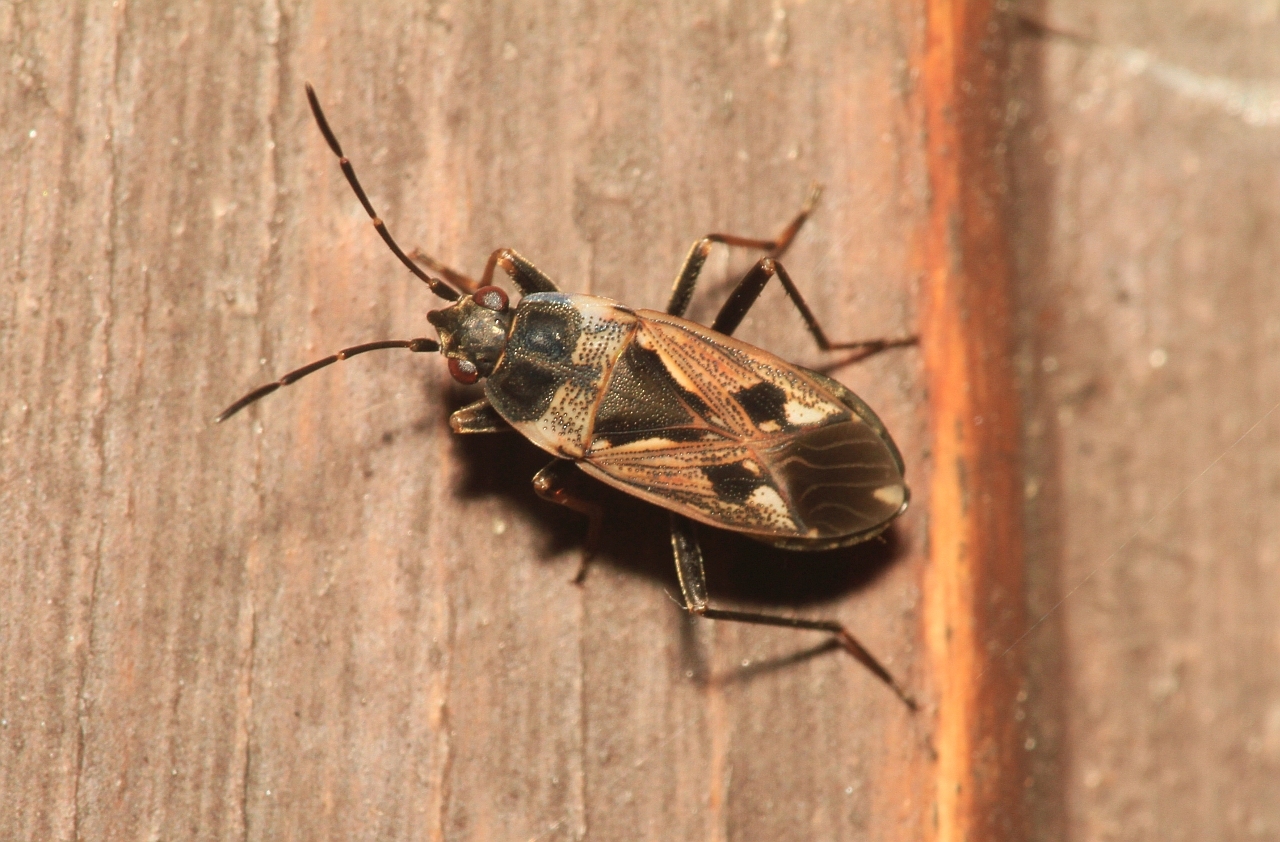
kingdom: Animalia
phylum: Arthropoda
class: Insecta
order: Hemiptera
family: Rhyparochromidae
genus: Rhyparochromus
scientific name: Rhyparochromus vulgaris
